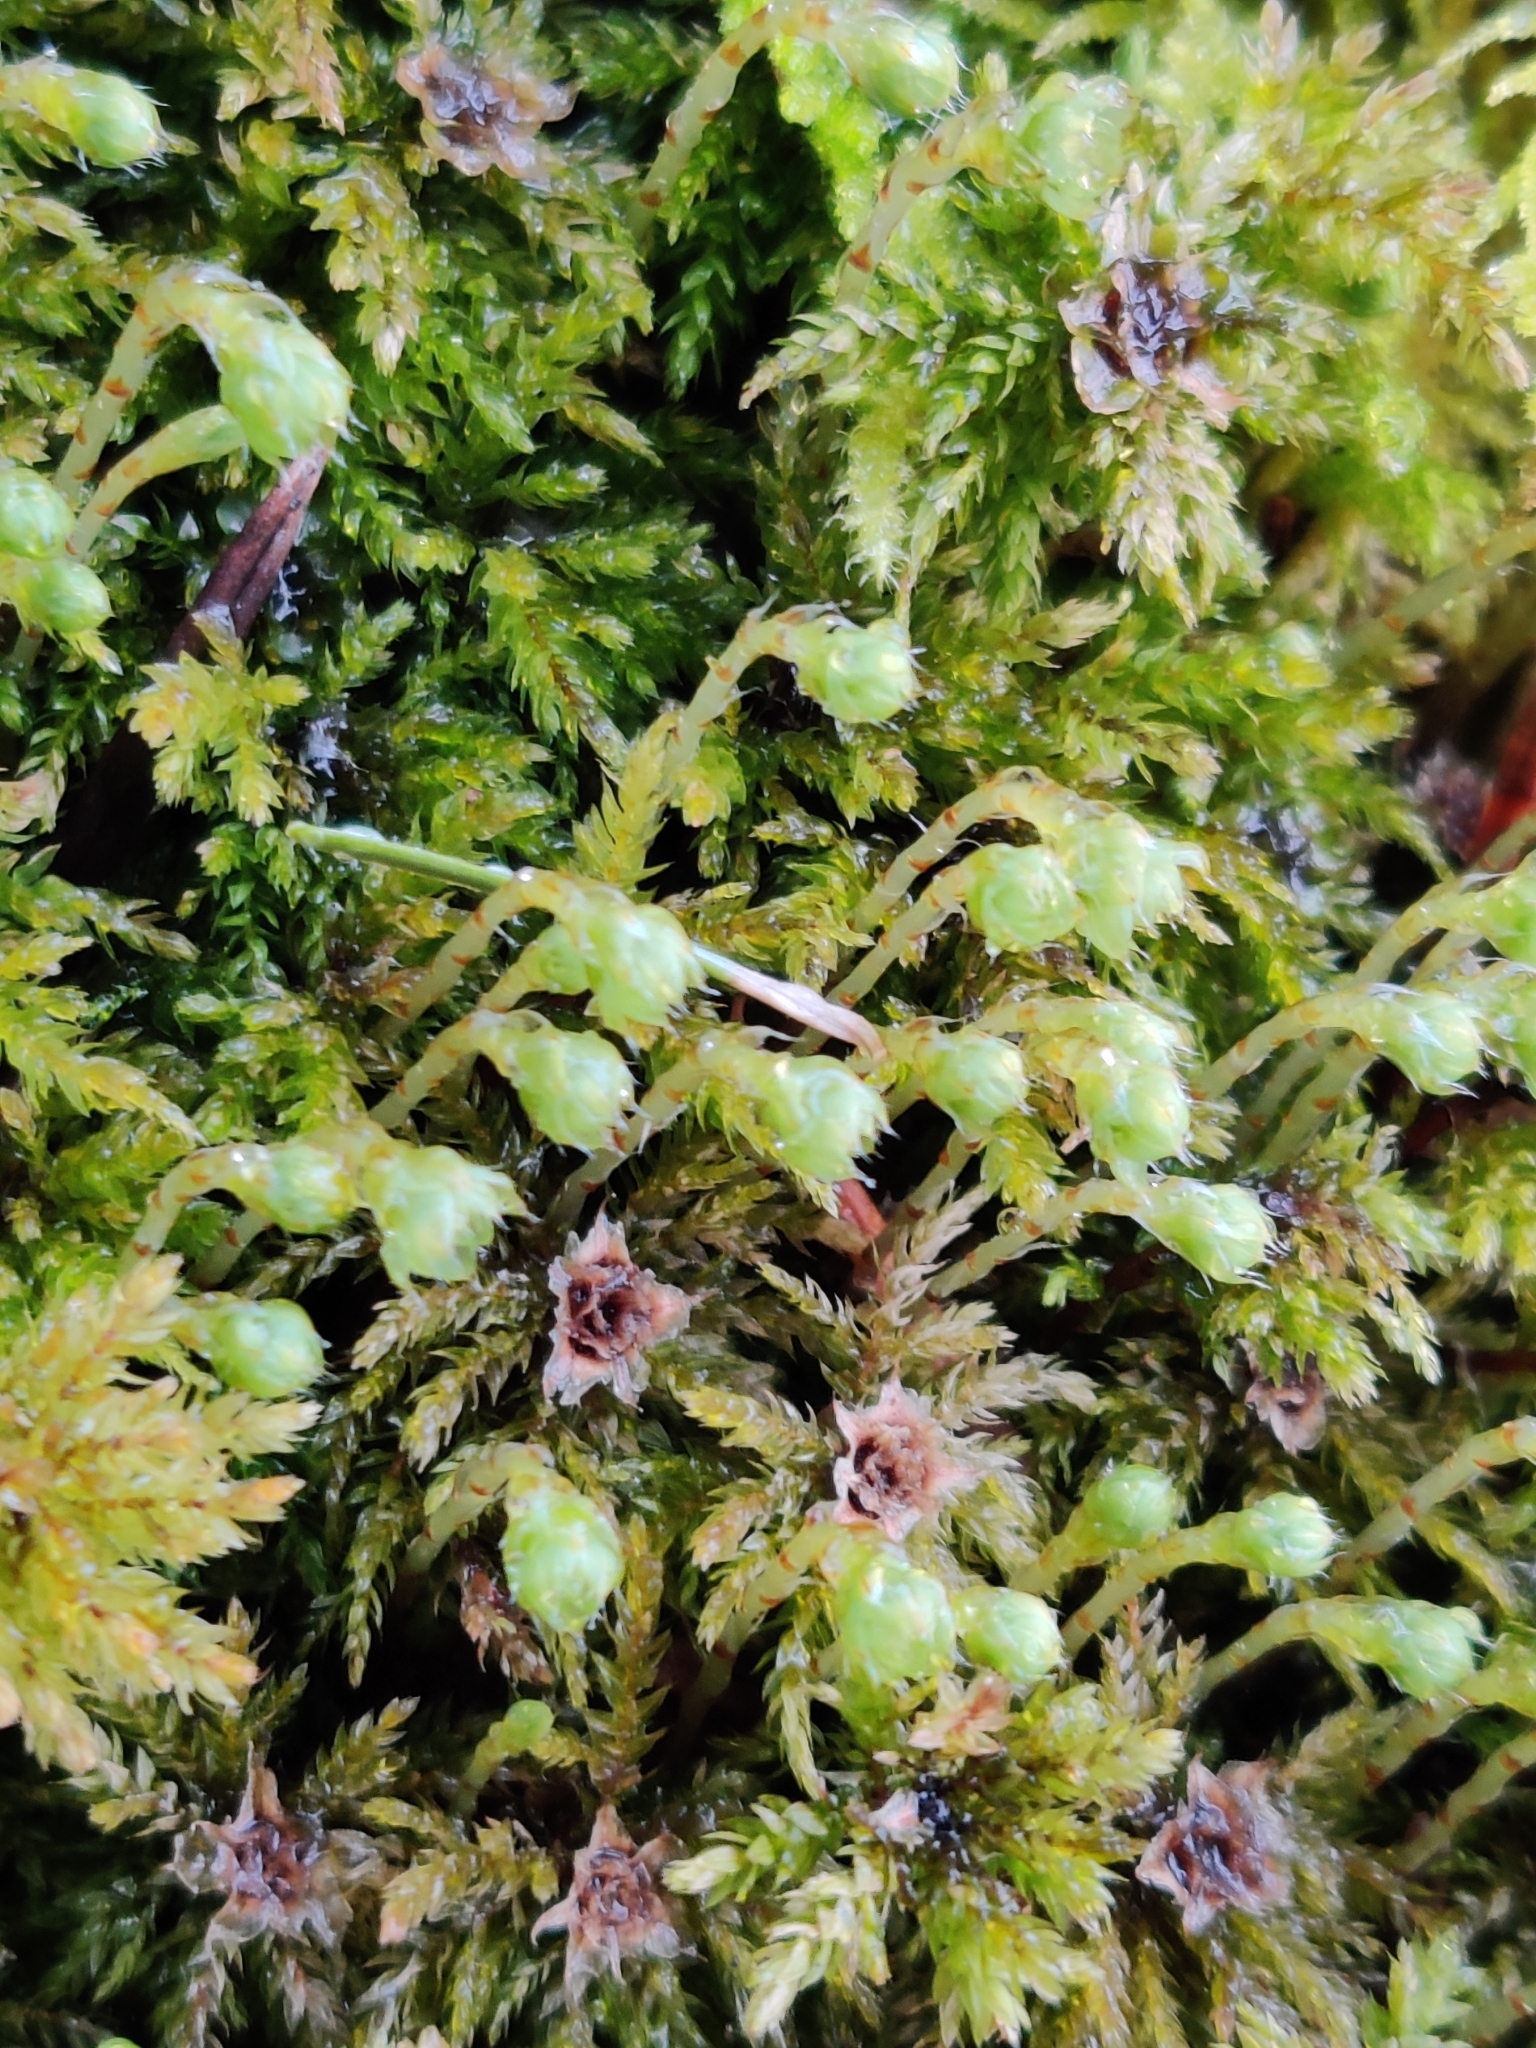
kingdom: Plantae
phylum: Bryophyta
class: Bryopsida
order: Bryales
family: Mniaceae
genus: Leucolepis
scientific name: Leucolepis acanthoneura
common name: Leucolepis umbrella moss
